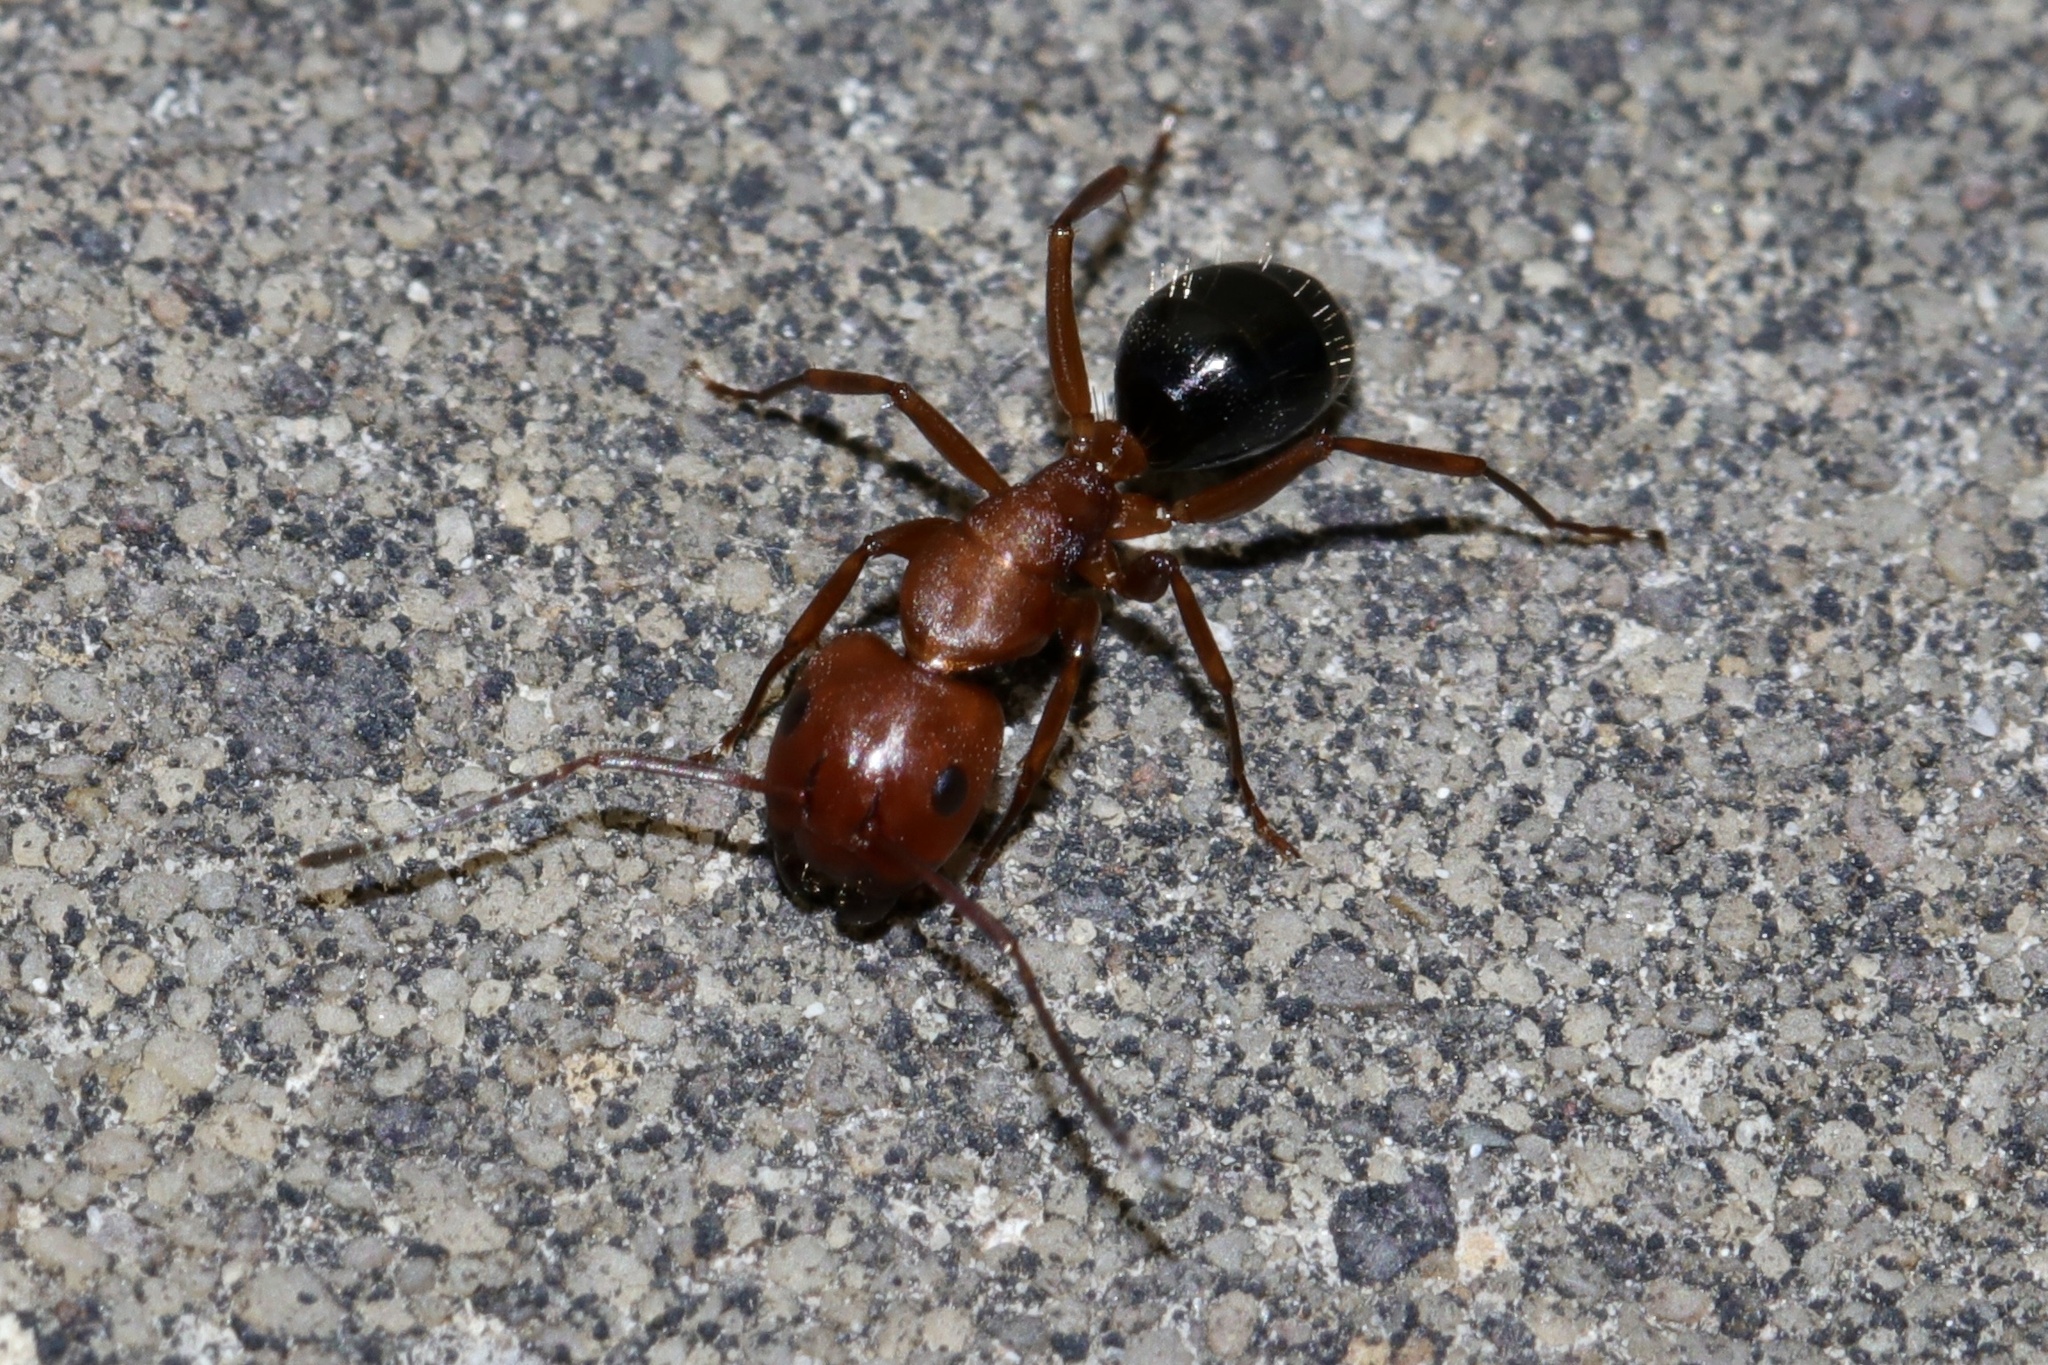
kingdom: Animalia
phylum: Arthropoda
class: Insecta
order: Hymenoptera
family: Formicidae
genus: Camponotus
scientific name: Camponotus decipiens
